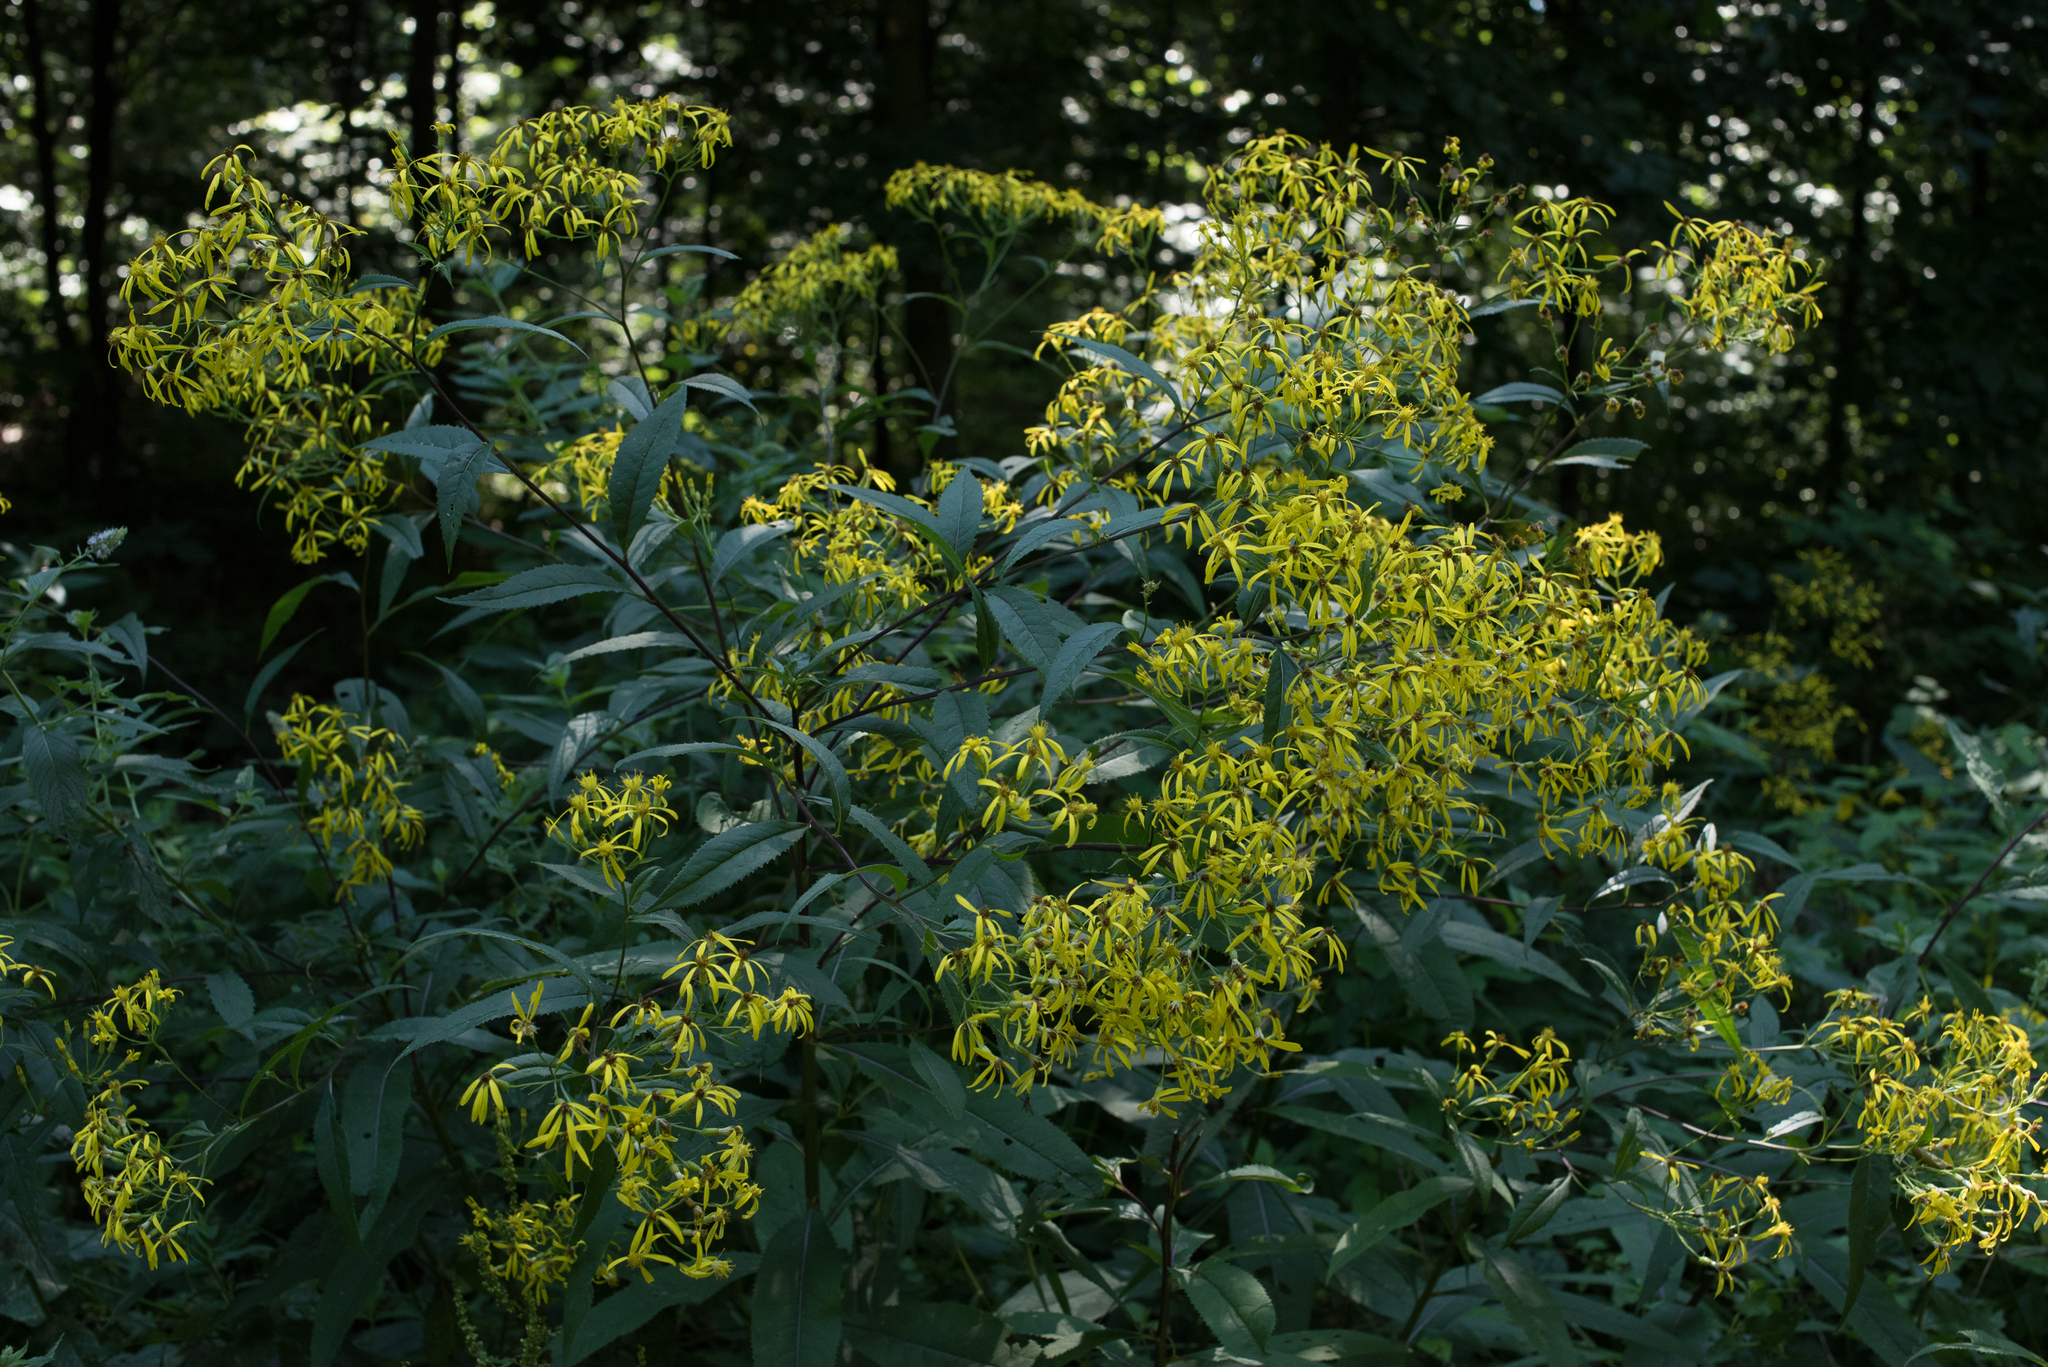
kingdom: Plantae
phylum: Tracheophyta
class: Magnoliopsida
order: Asterales
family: Asteraceae
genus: Senecio
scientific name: Senecio ovatus
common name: Wood ragwort
